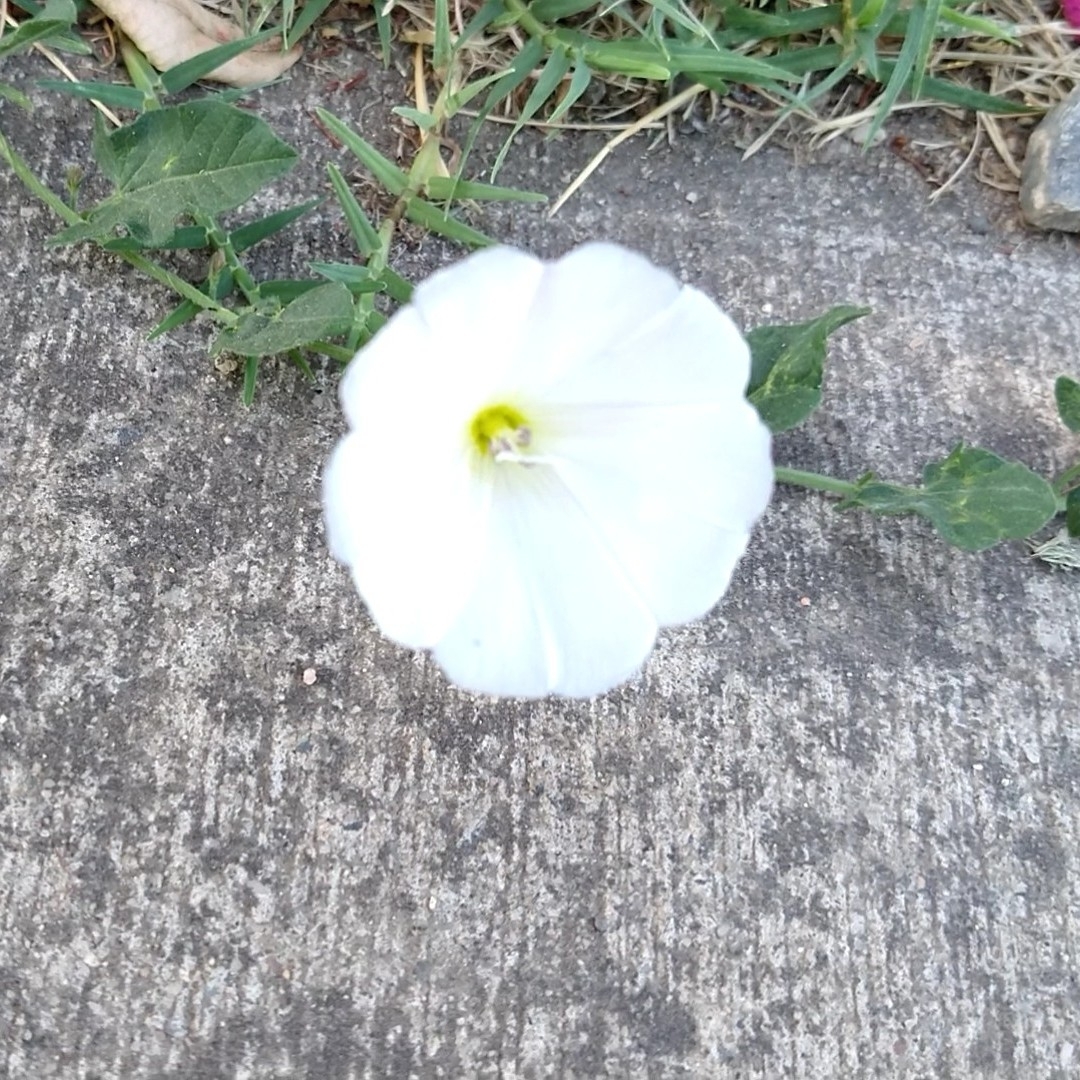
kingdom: Plantae
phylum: Tracheophyta
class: Magnoliopsida
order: Solanales
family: Convolvulaceae
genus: Convolvulus
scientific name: Convolvulus arvensis
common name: Field bindweed
